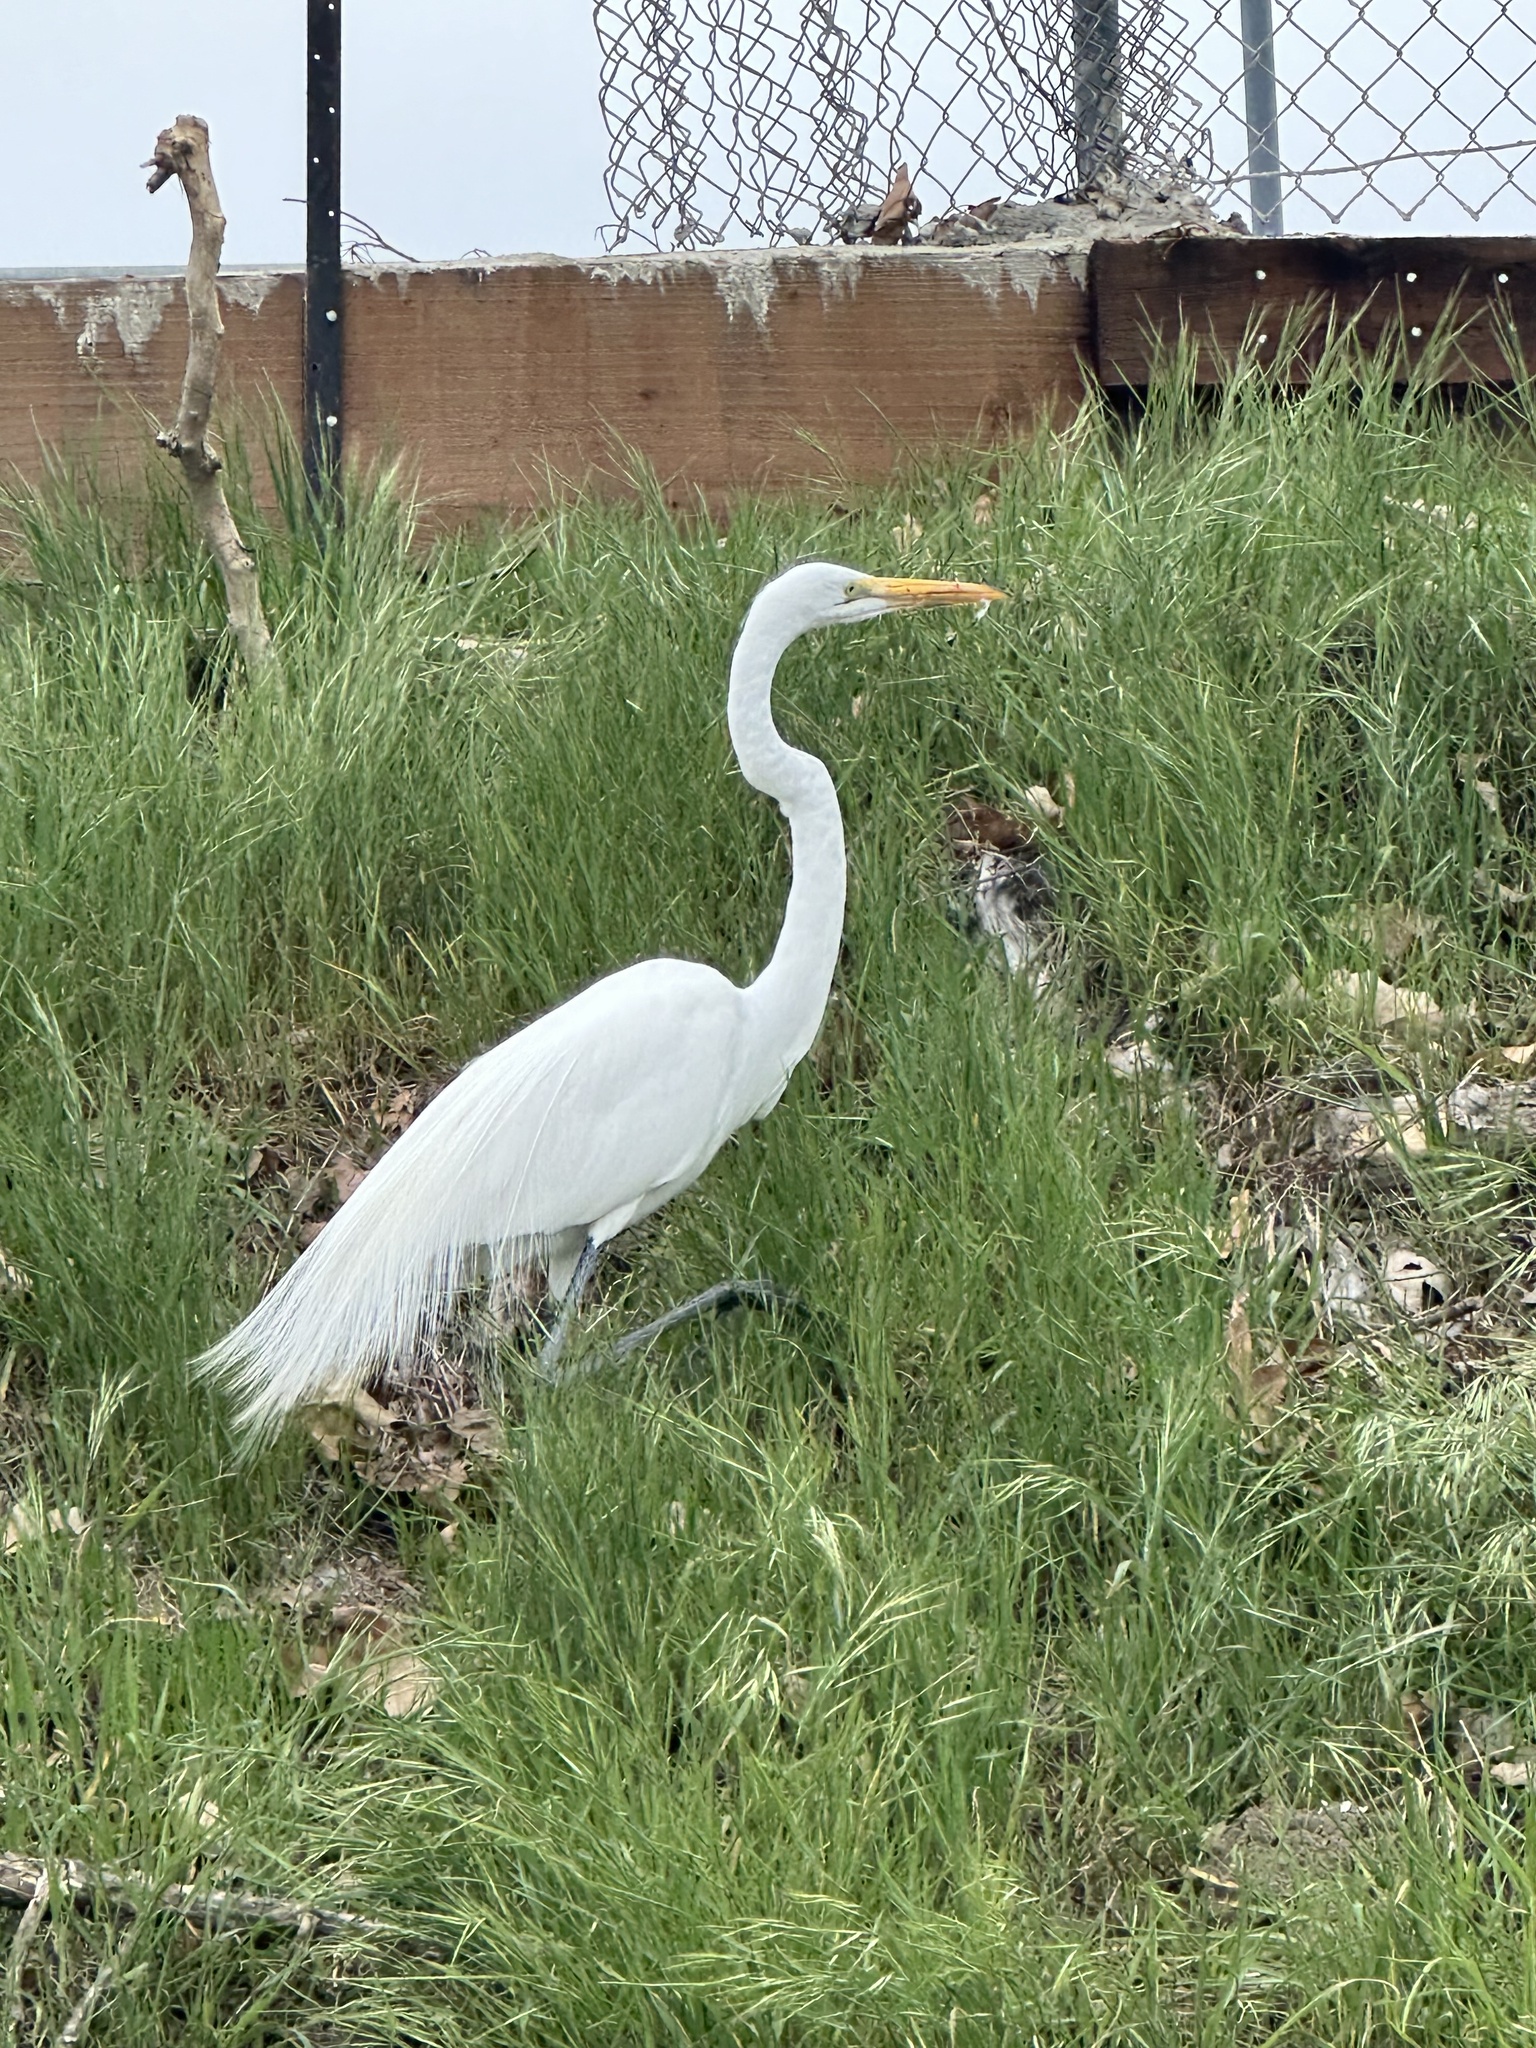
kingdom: Animalia
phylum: Chordata
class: Aves
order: Pelecaniformes
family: Ardeidae
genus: Ardea
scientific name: Ardea alba
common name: Great egret
